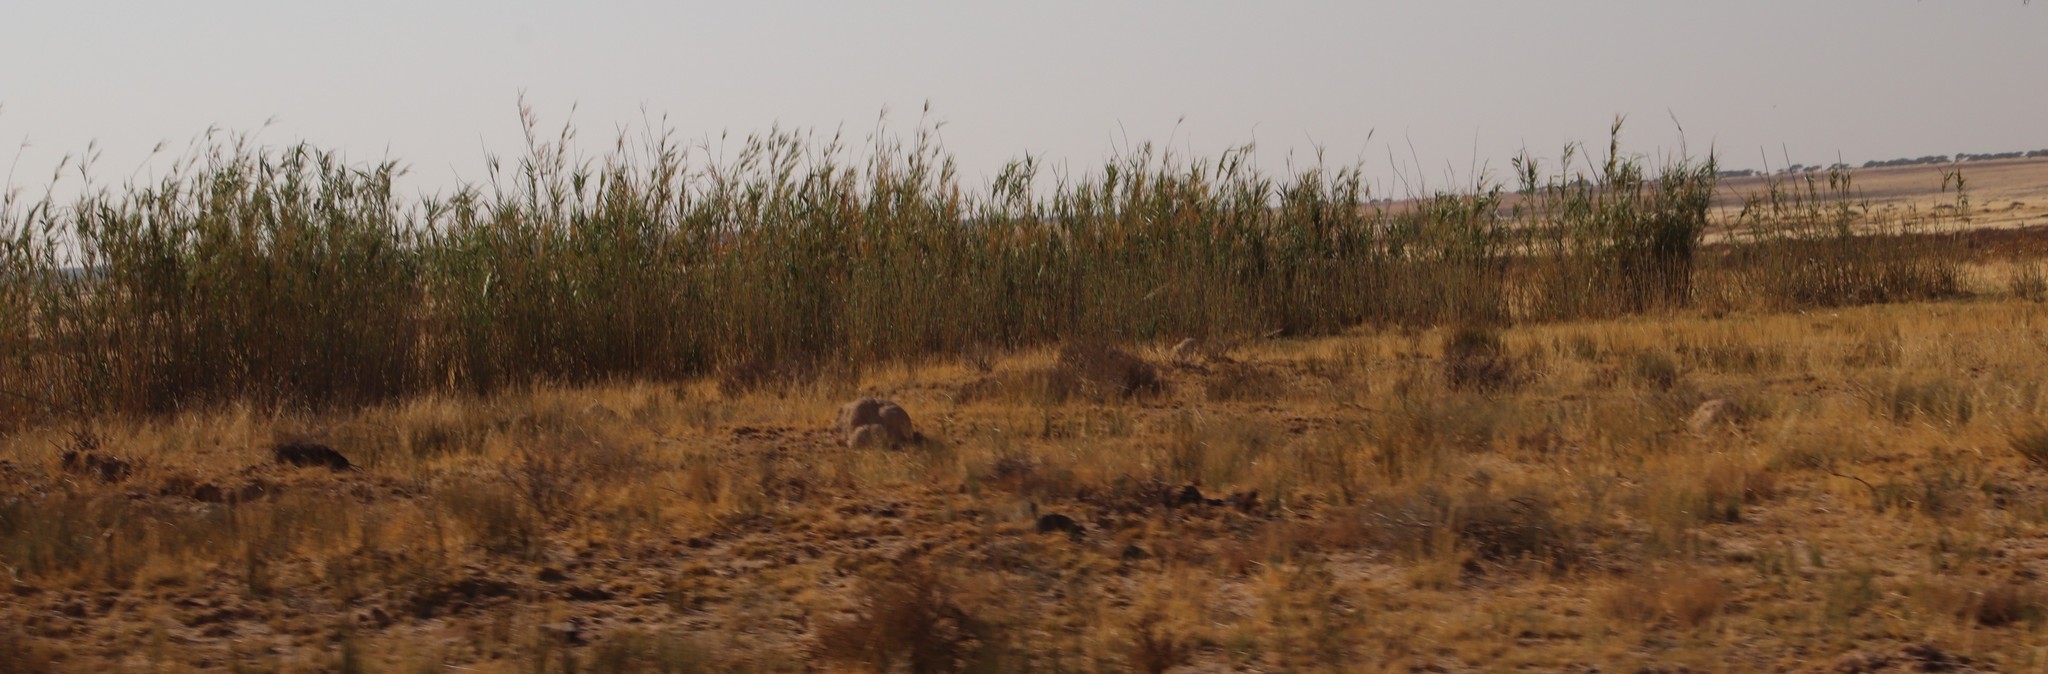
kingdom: Plantae
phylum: Tracheophyta
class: Liliopsida
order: Poales
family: Poaceae
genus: Arundo
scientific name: Arundo donax
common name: Giant reed
